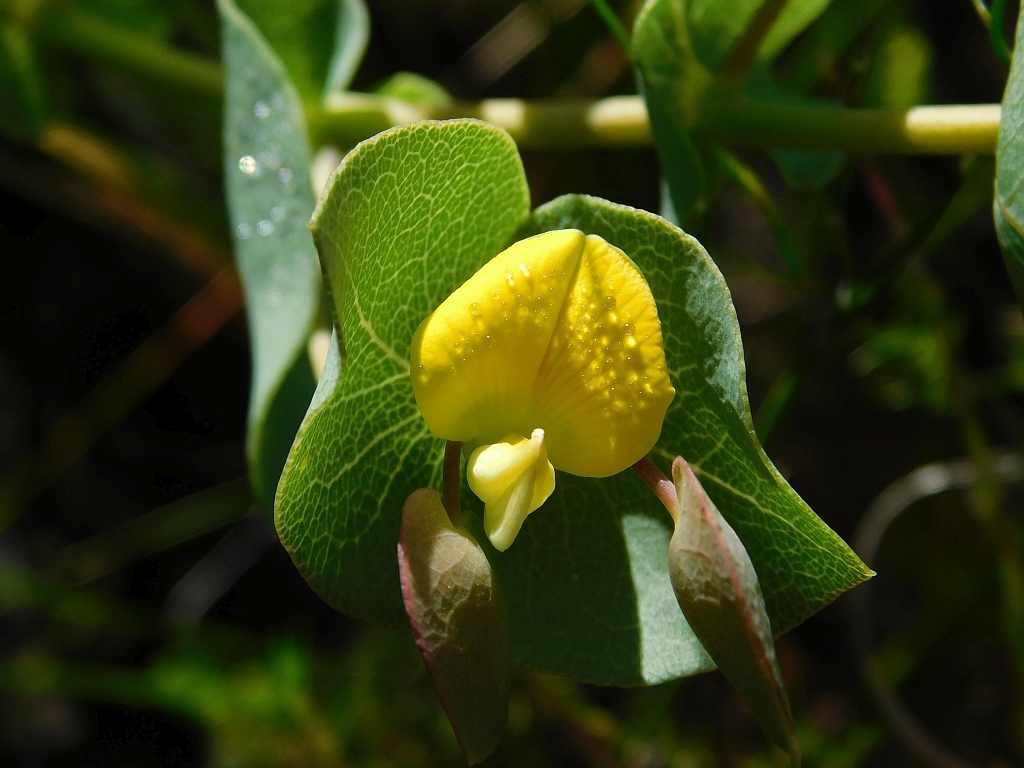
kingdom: Plantae
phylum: Tracheophyta
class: Magnoliopsida
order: Fabales
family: Fabaceae
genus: Rafnia
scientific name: Rafnia acuminata
